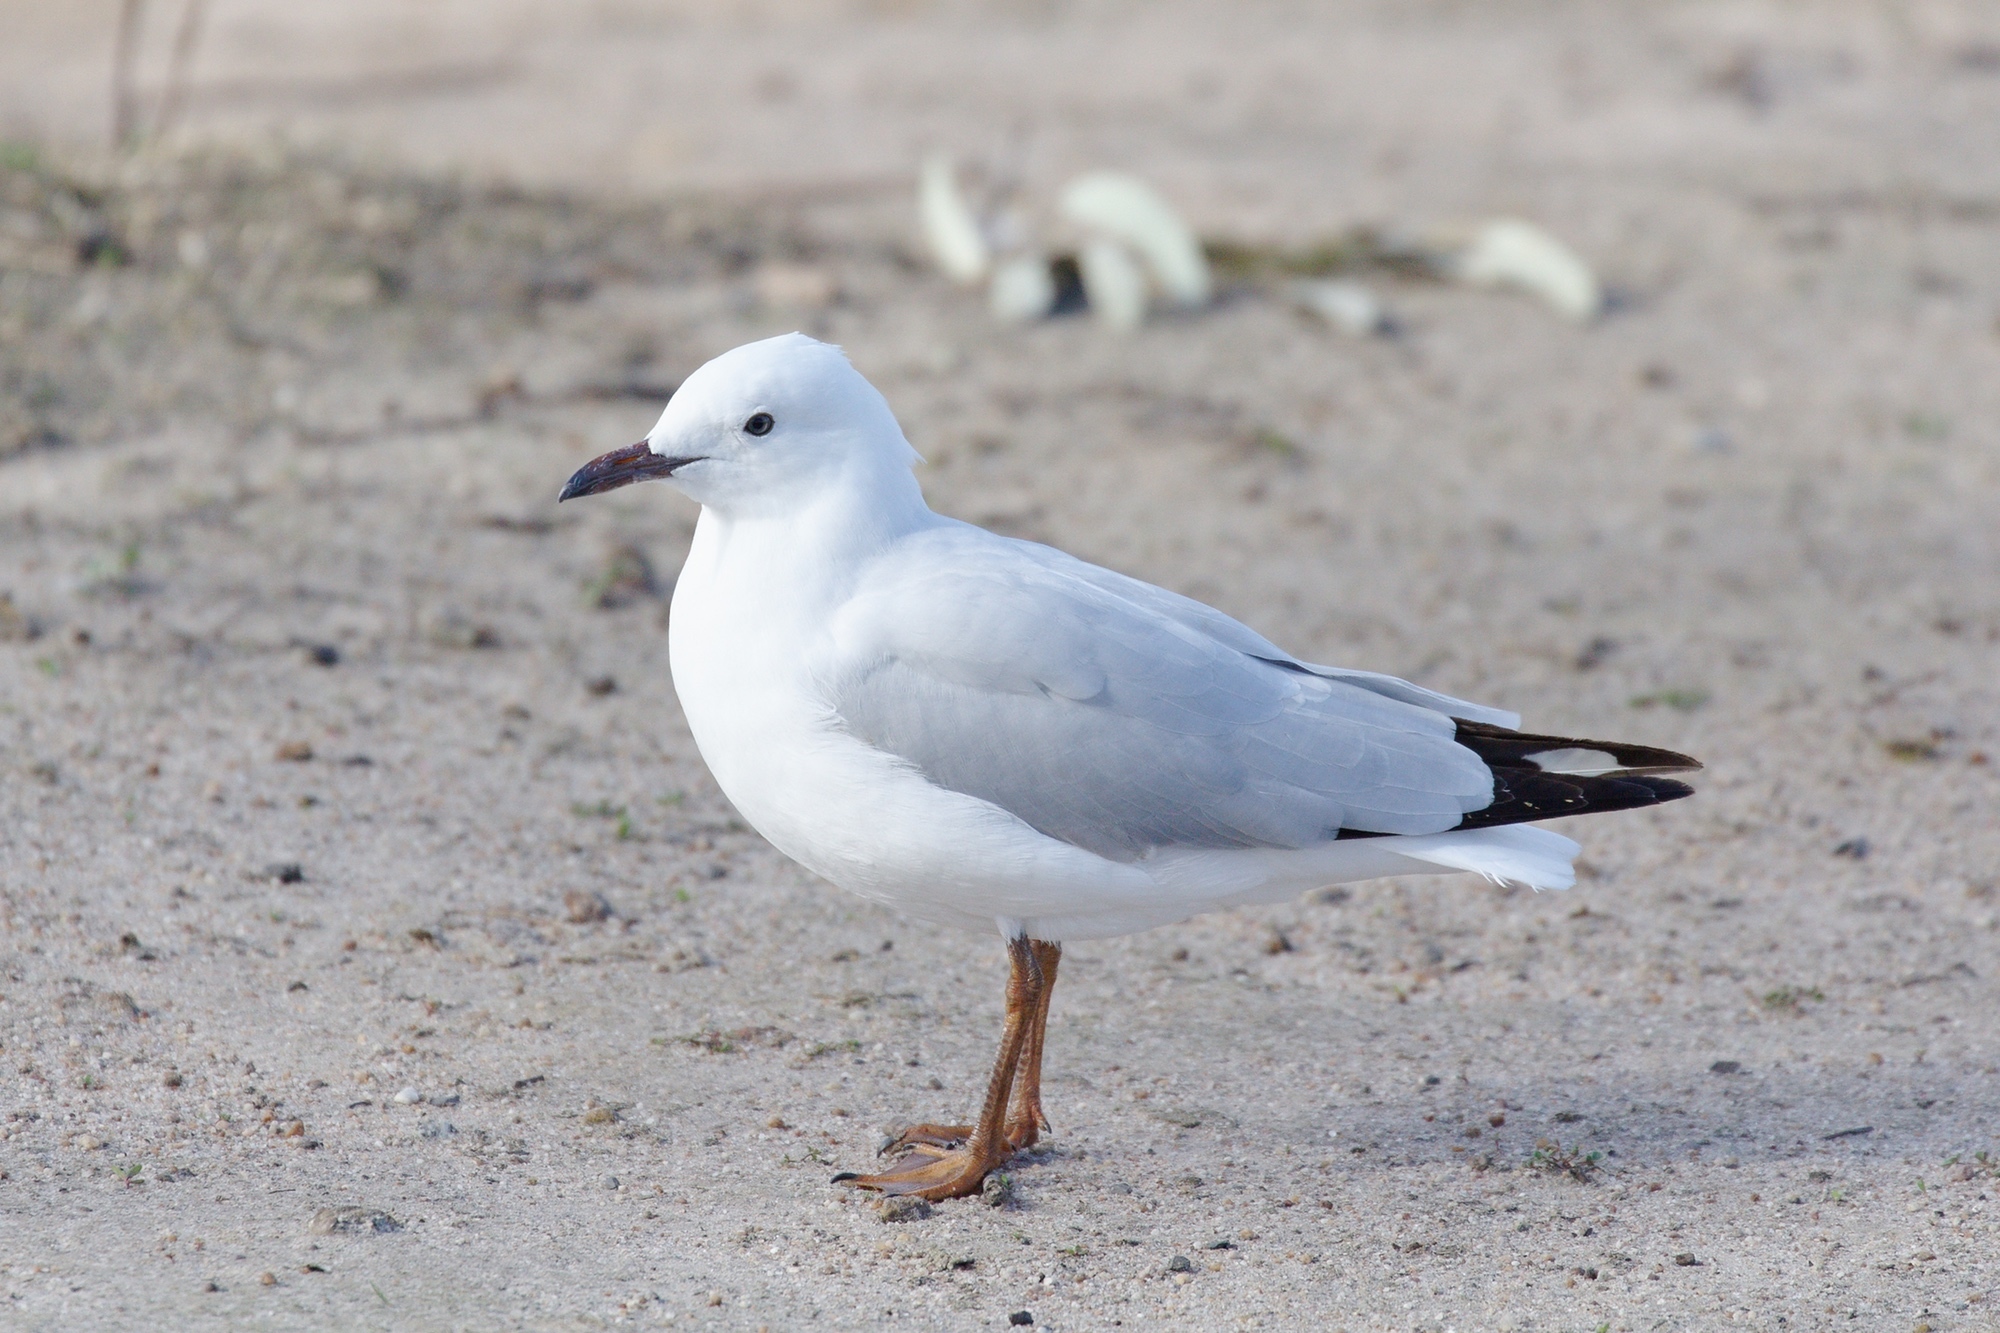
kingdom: Animalia
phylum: Chordata
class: Aves
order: Charadriiformes
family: Laridae
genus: Chroicocephalus
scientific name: Chroicocephalus novaehollandiae
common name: Silver gull
